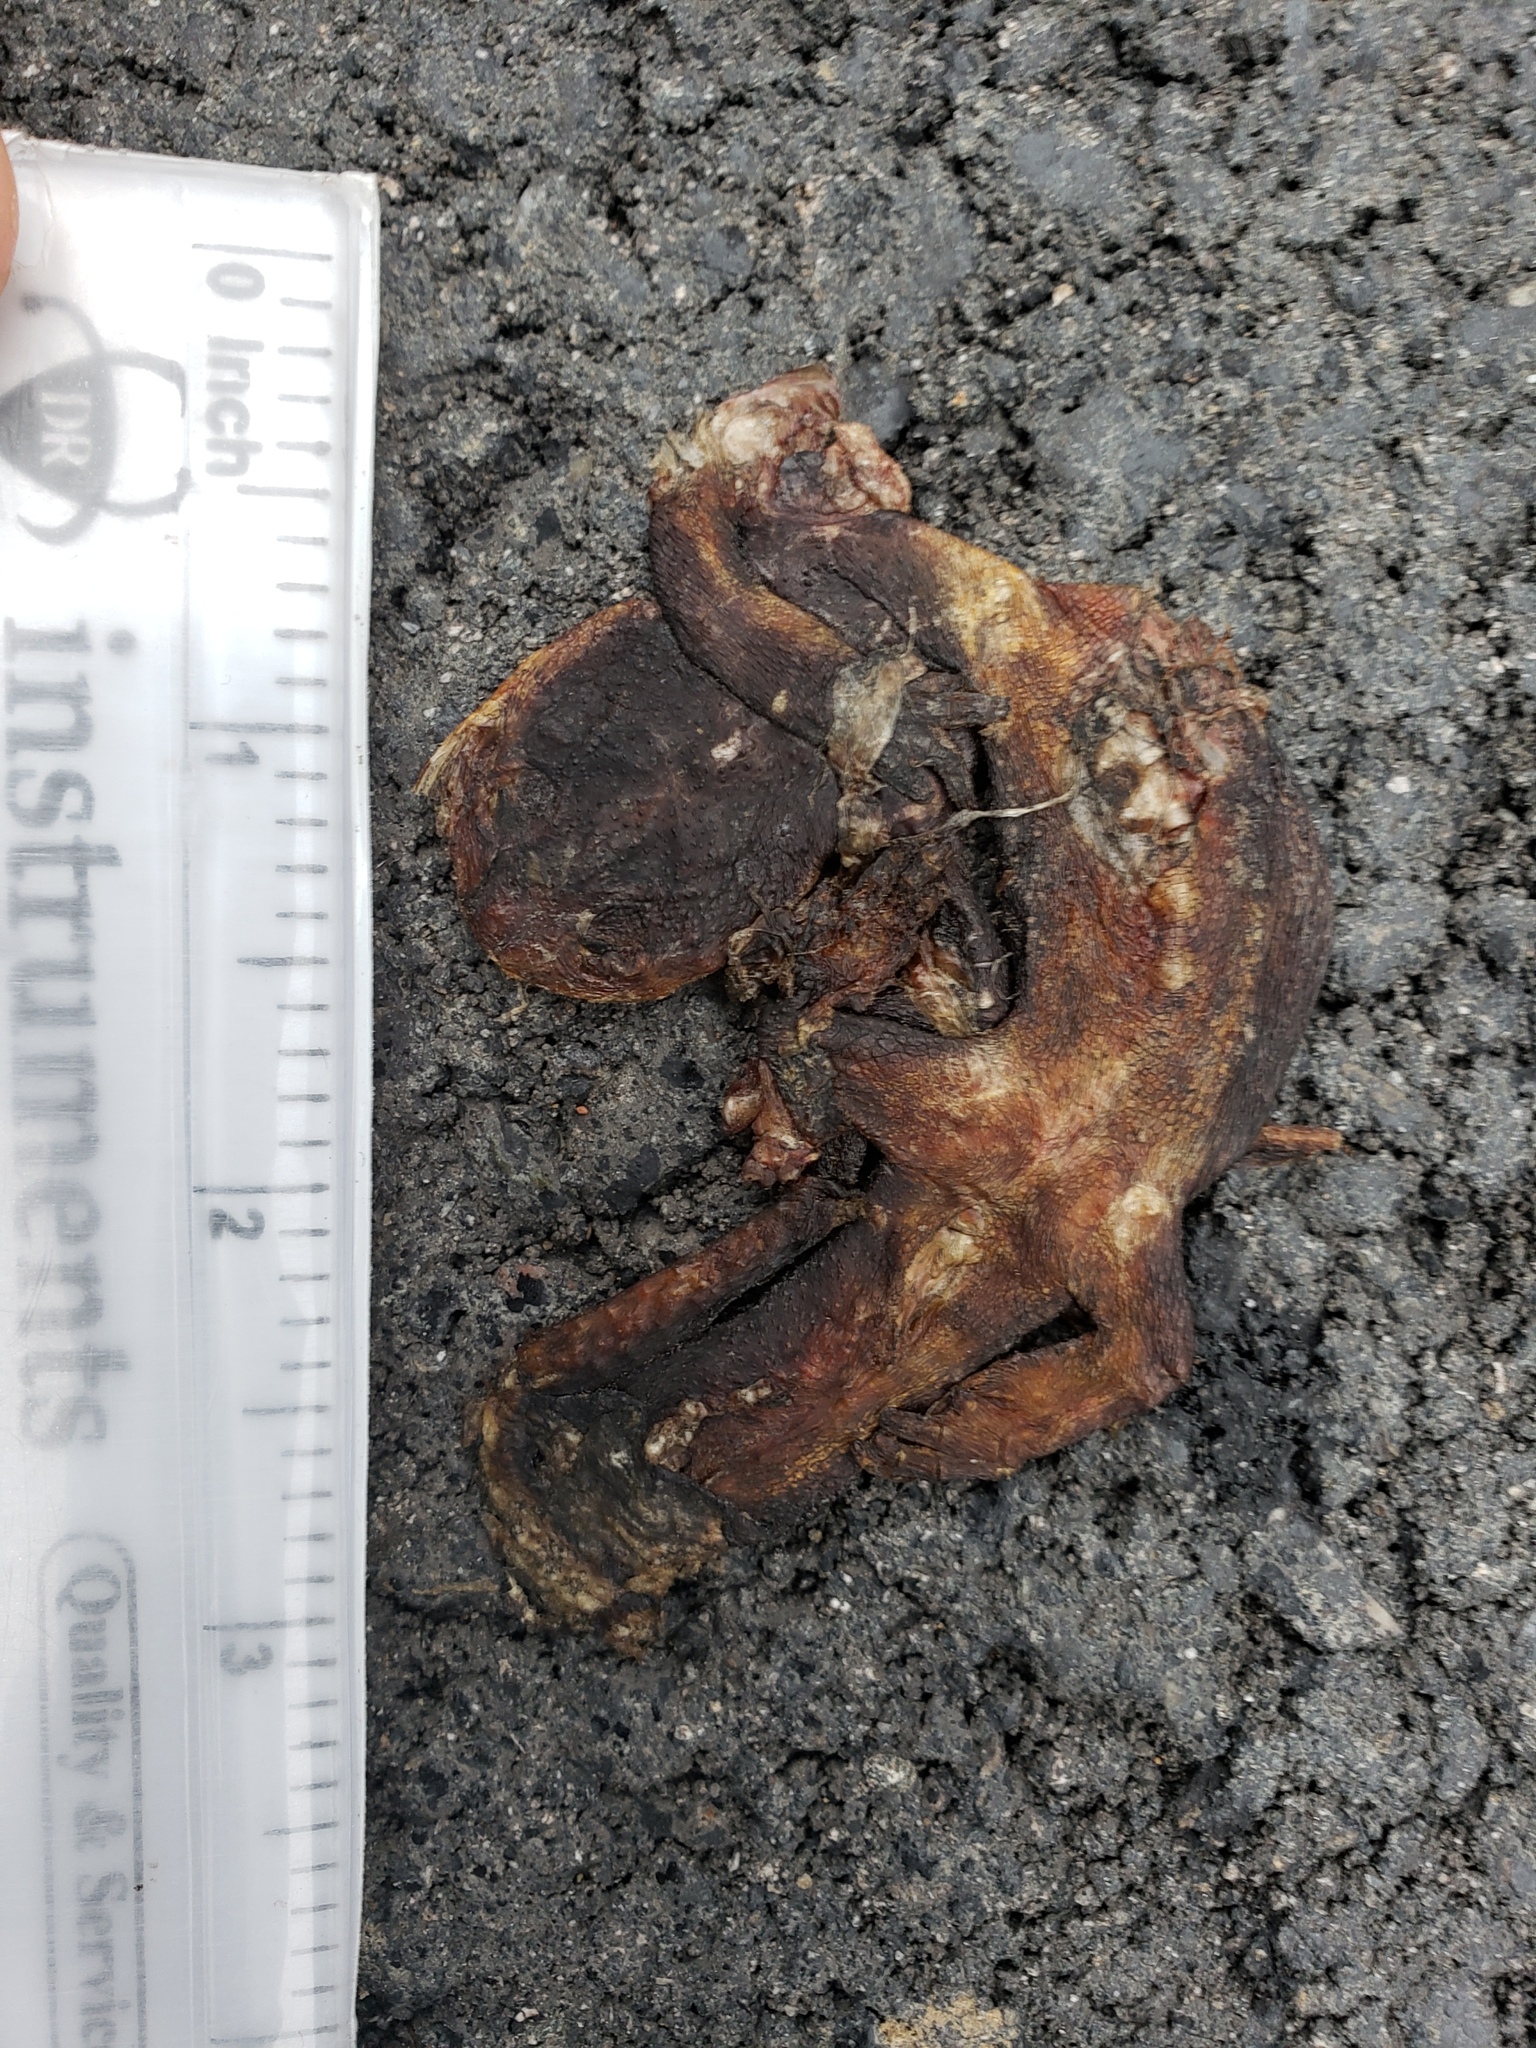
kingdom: Animalia
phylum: Chordata
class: Amphibia
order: Caudata
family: Salamandridae
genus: Taricha
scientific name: Taricha
